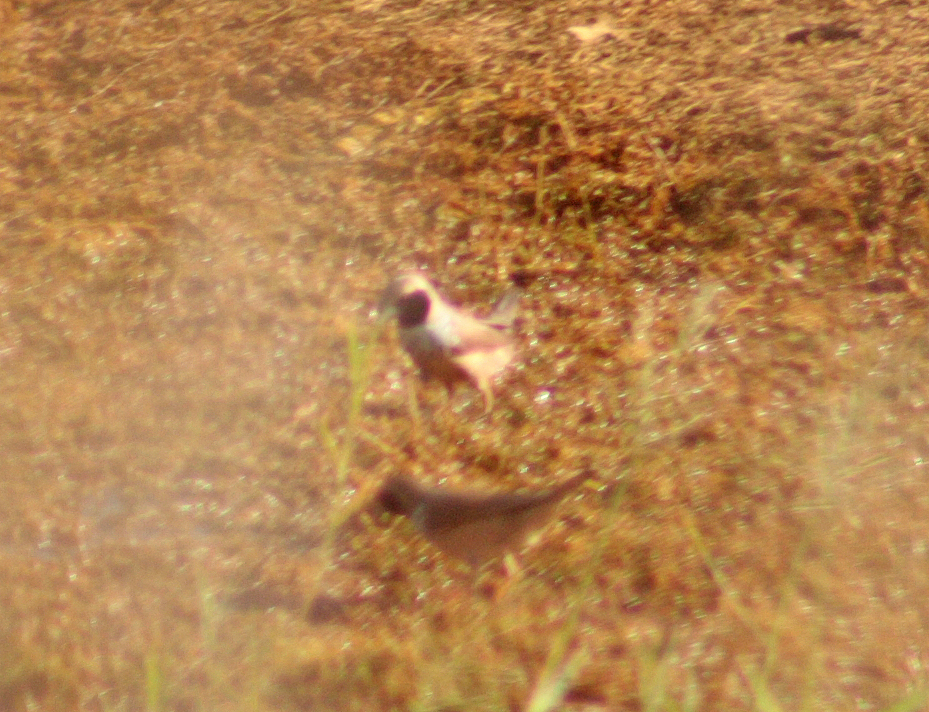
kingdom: Animalia
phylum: Chordata
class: Aves
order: Passeriformes
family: Estrildidae
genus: Heteromunia
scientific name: Heteromunia pectoralis
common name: Pictorella munia
